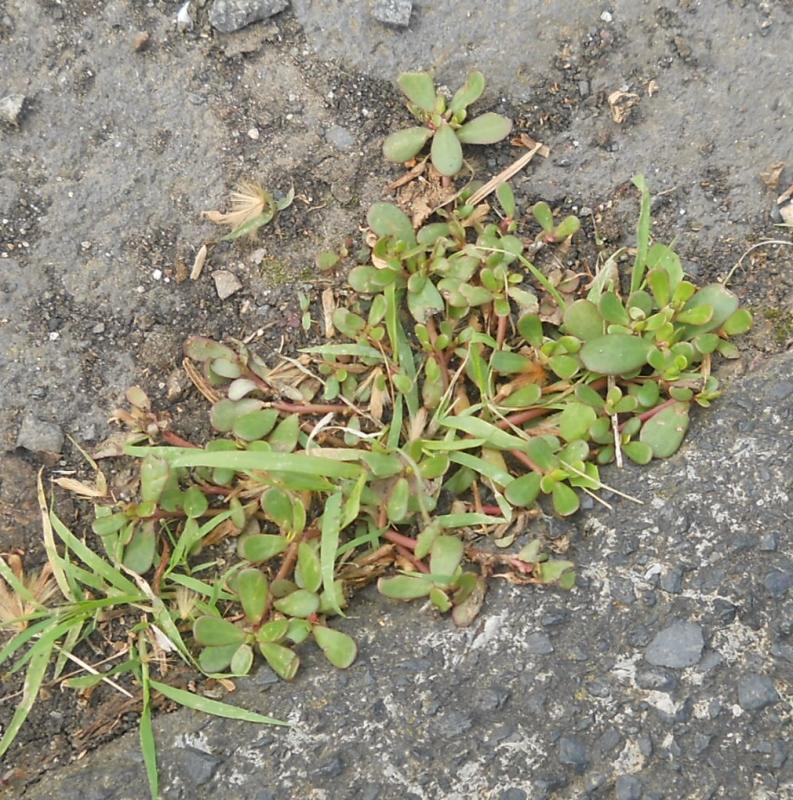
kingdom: Plantae
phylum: Tracheophyta
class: Magnoliopsida
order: Caryophyllales
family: Portulacaceae
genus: Portulaca
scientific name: Portulaca oleracea
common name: Common purslane
